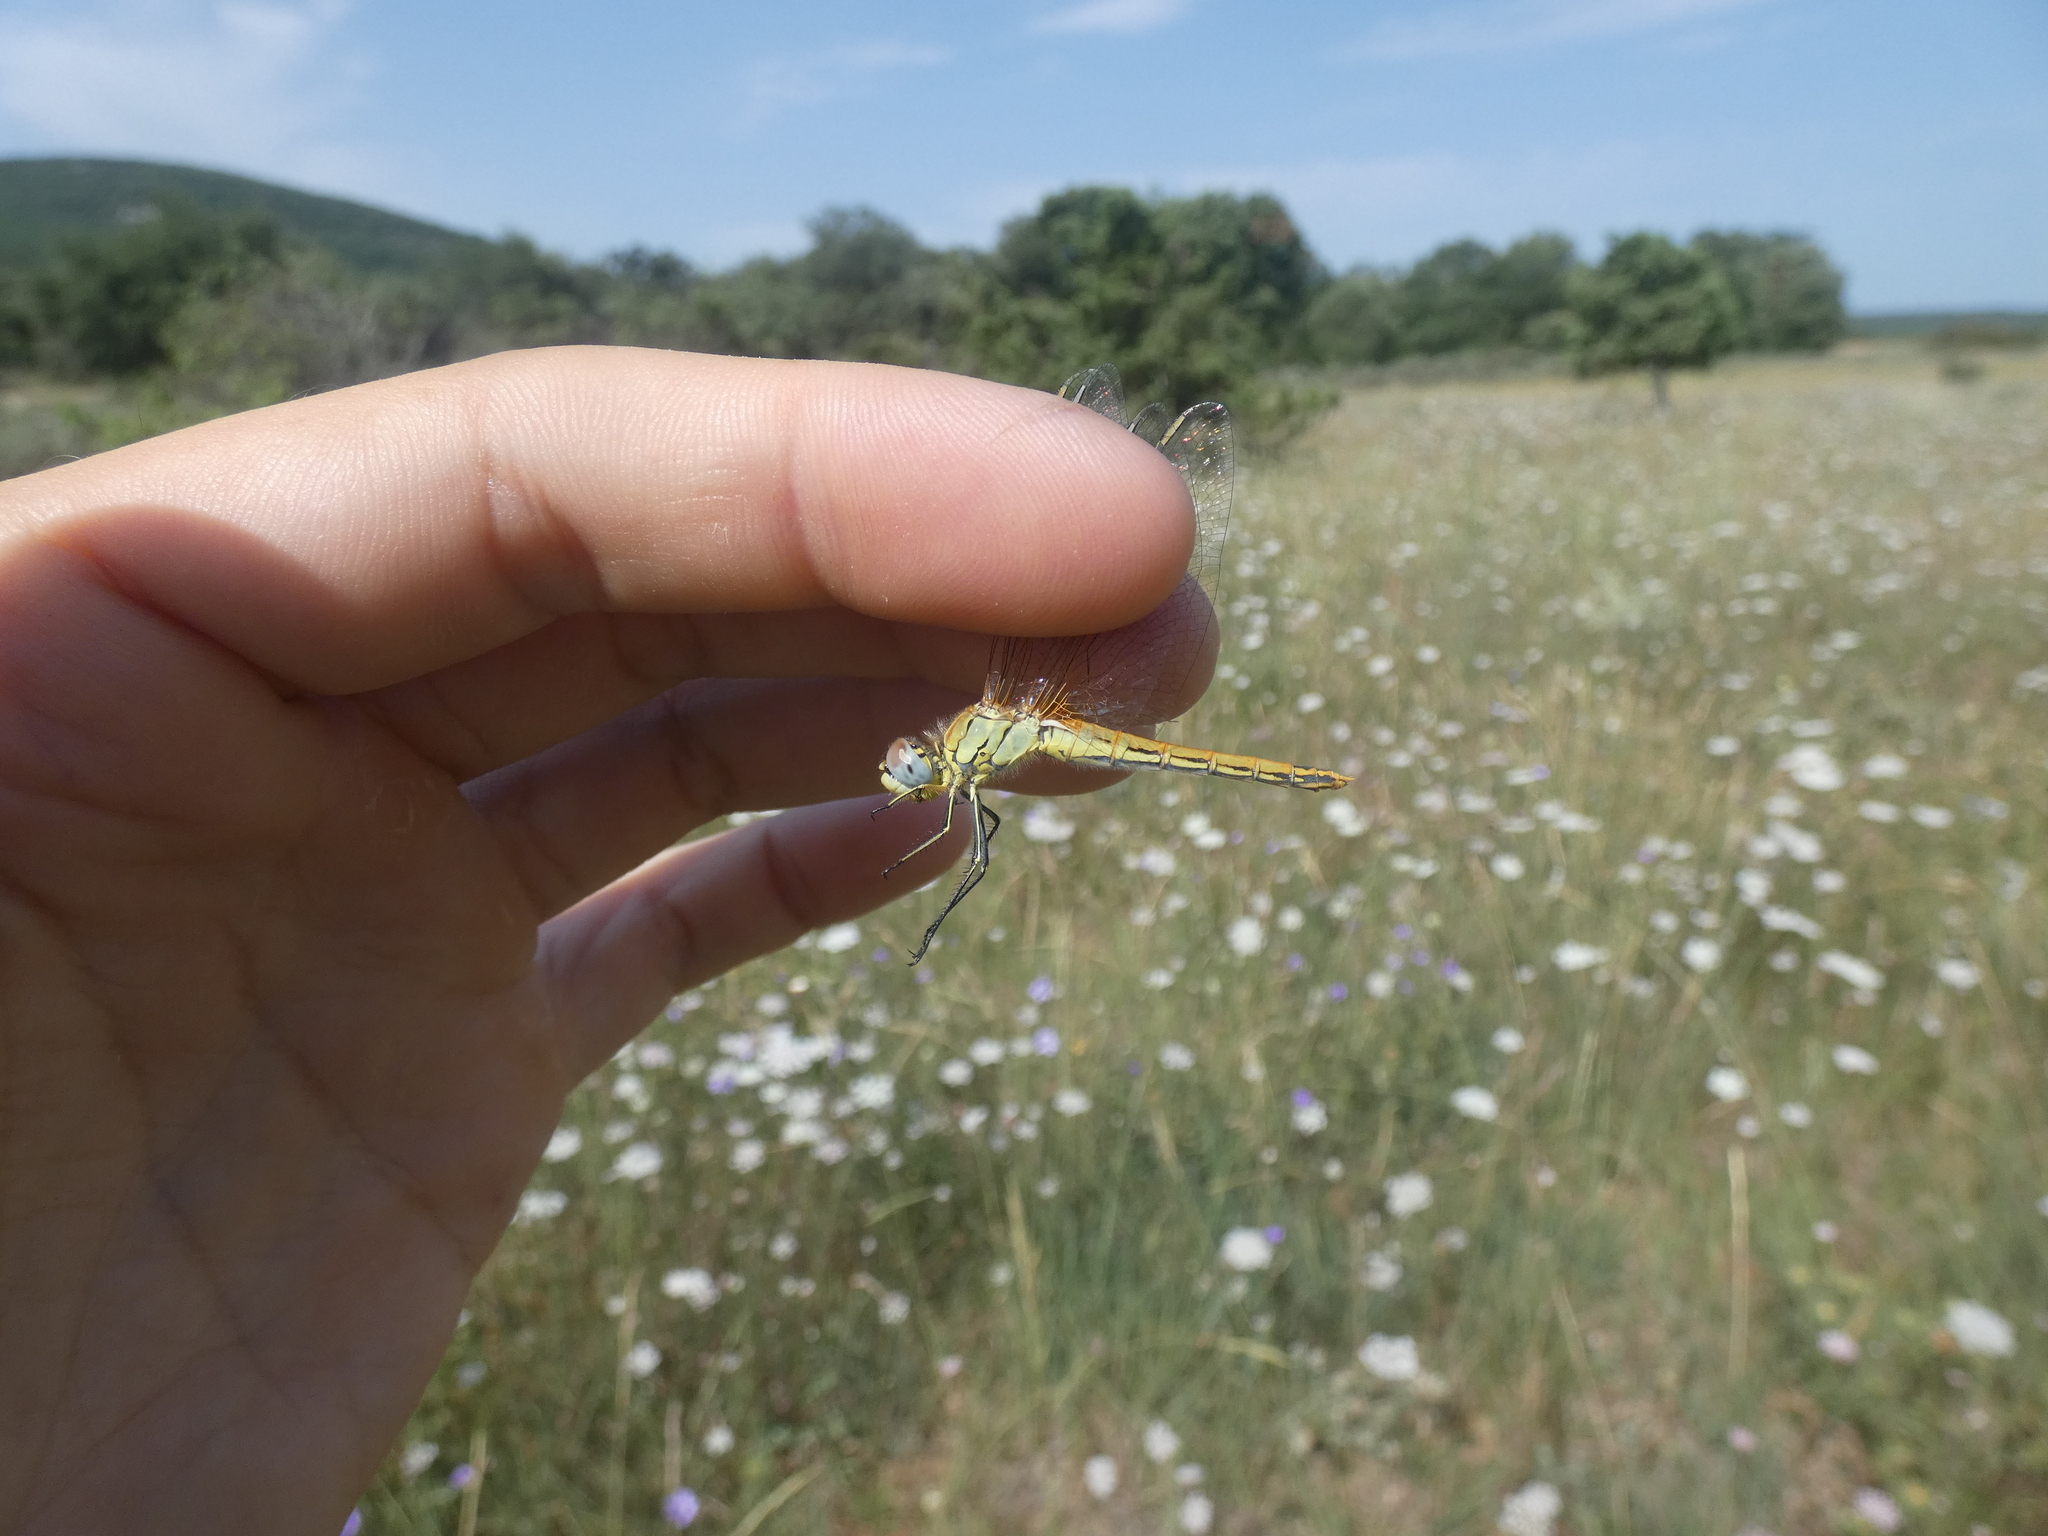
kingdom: Animalia
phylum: Arthropoda
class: Insecta
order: Odonata
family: Libellulidae
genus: Sympetrum
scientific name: Sympetrum fonscolombii
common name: Red-veined darter
